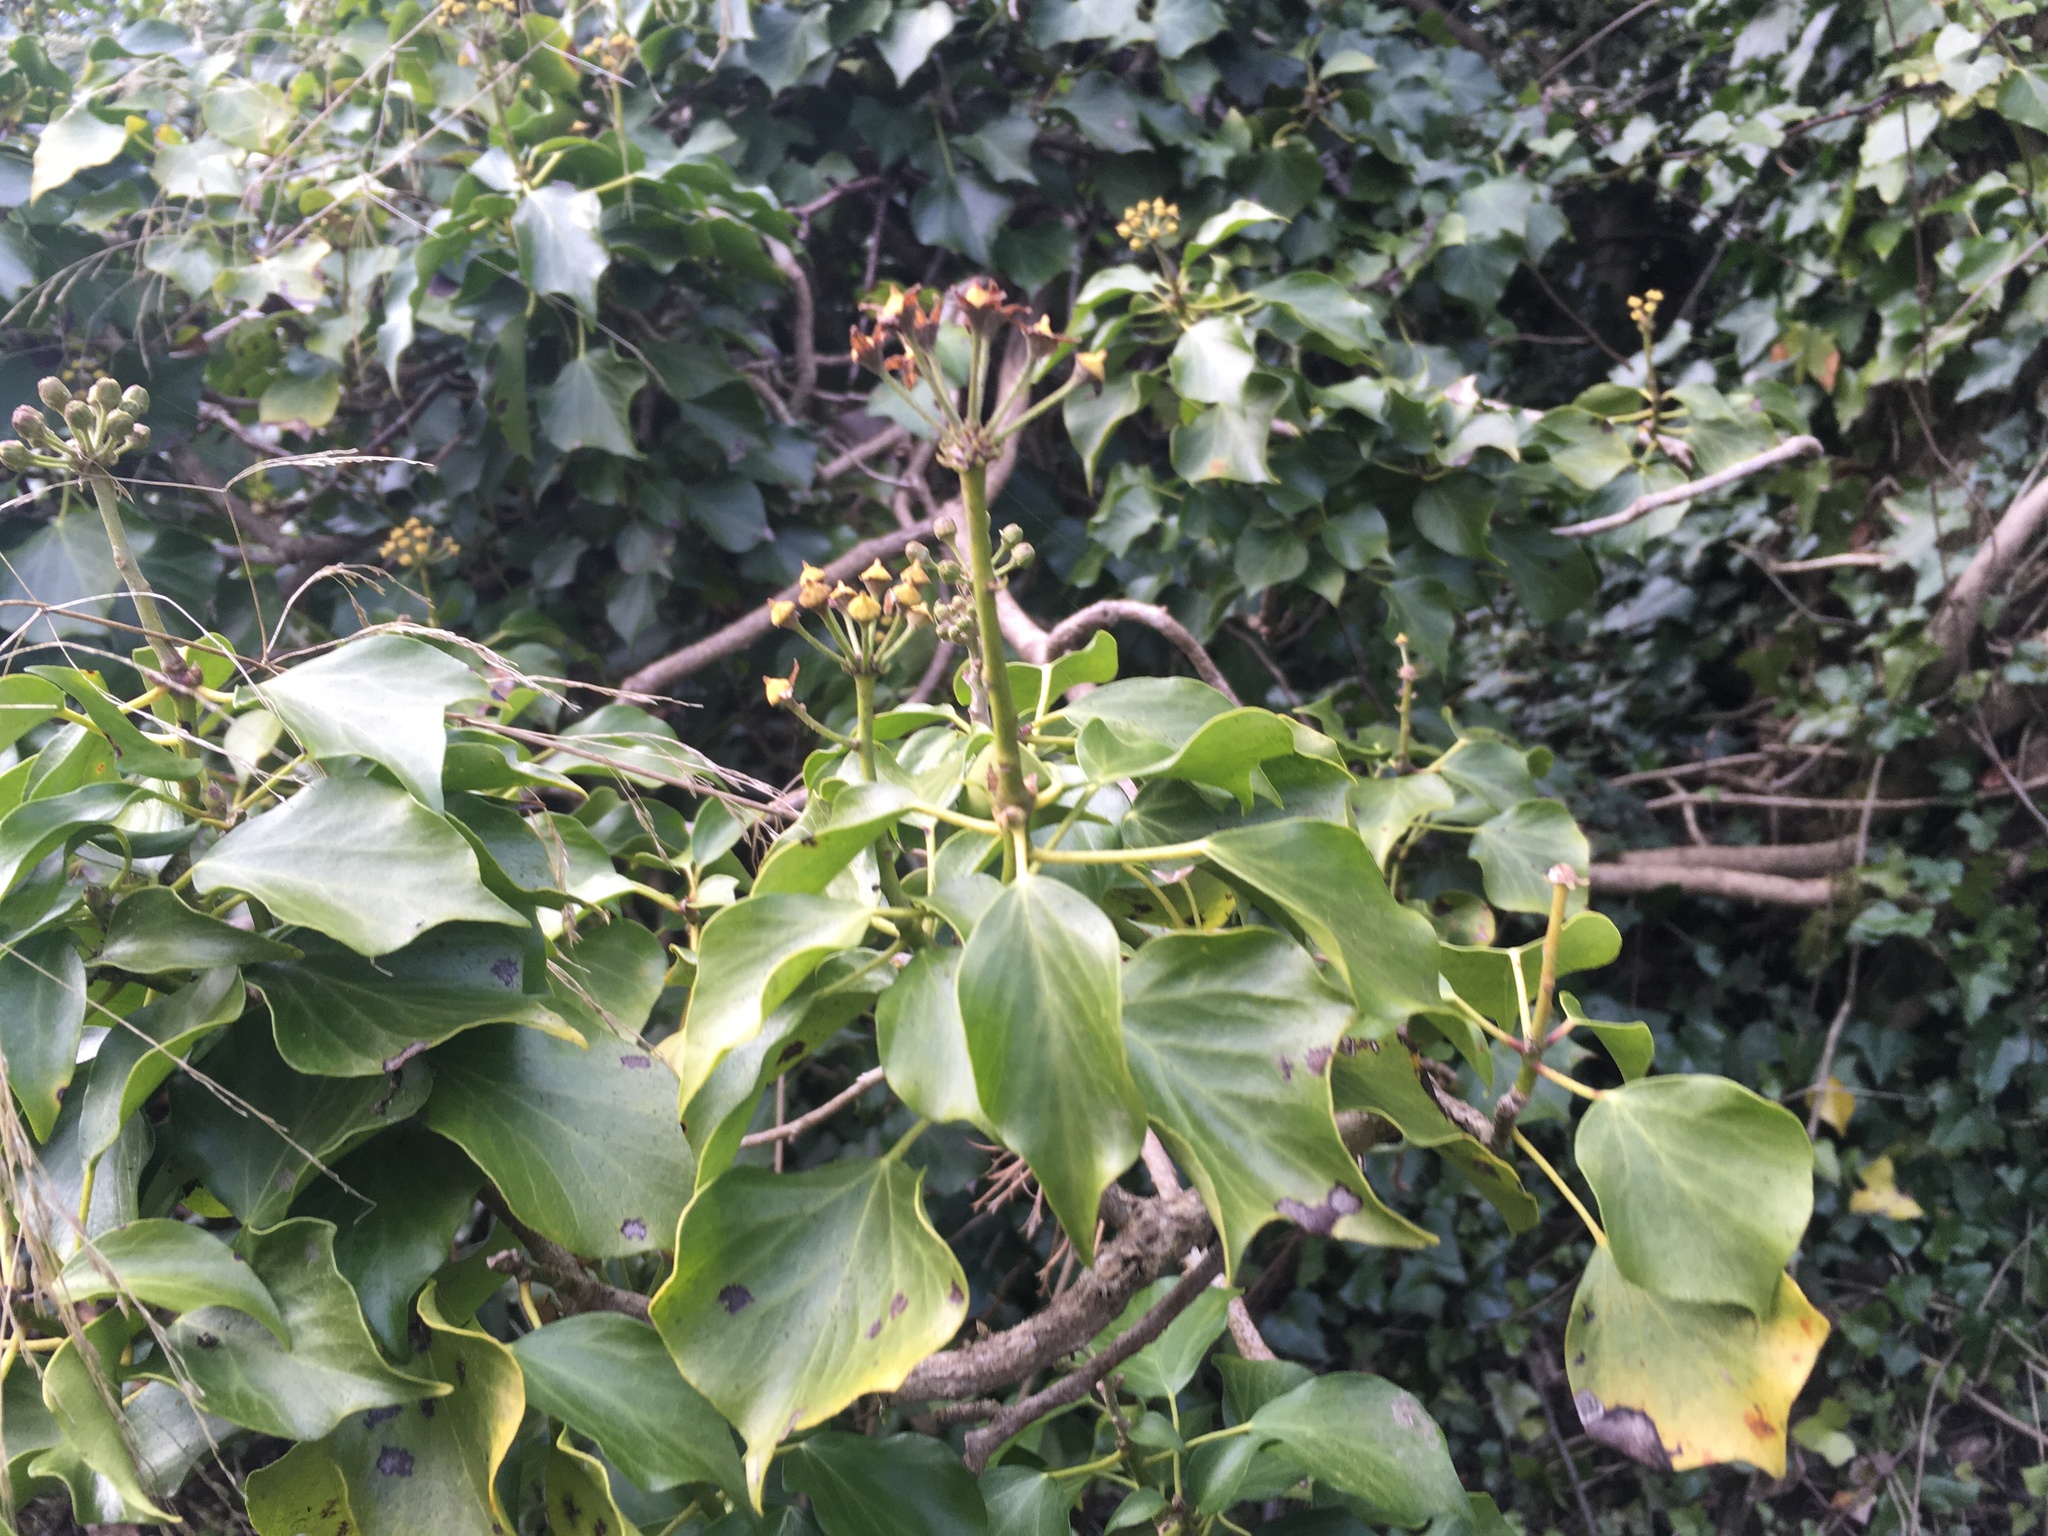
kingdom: Plantae
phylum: Tracheophyta
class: Magnoliopsida
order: Apiales
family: Araliaceae
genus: Hedera
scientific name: Hedera helix
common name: Ivy
